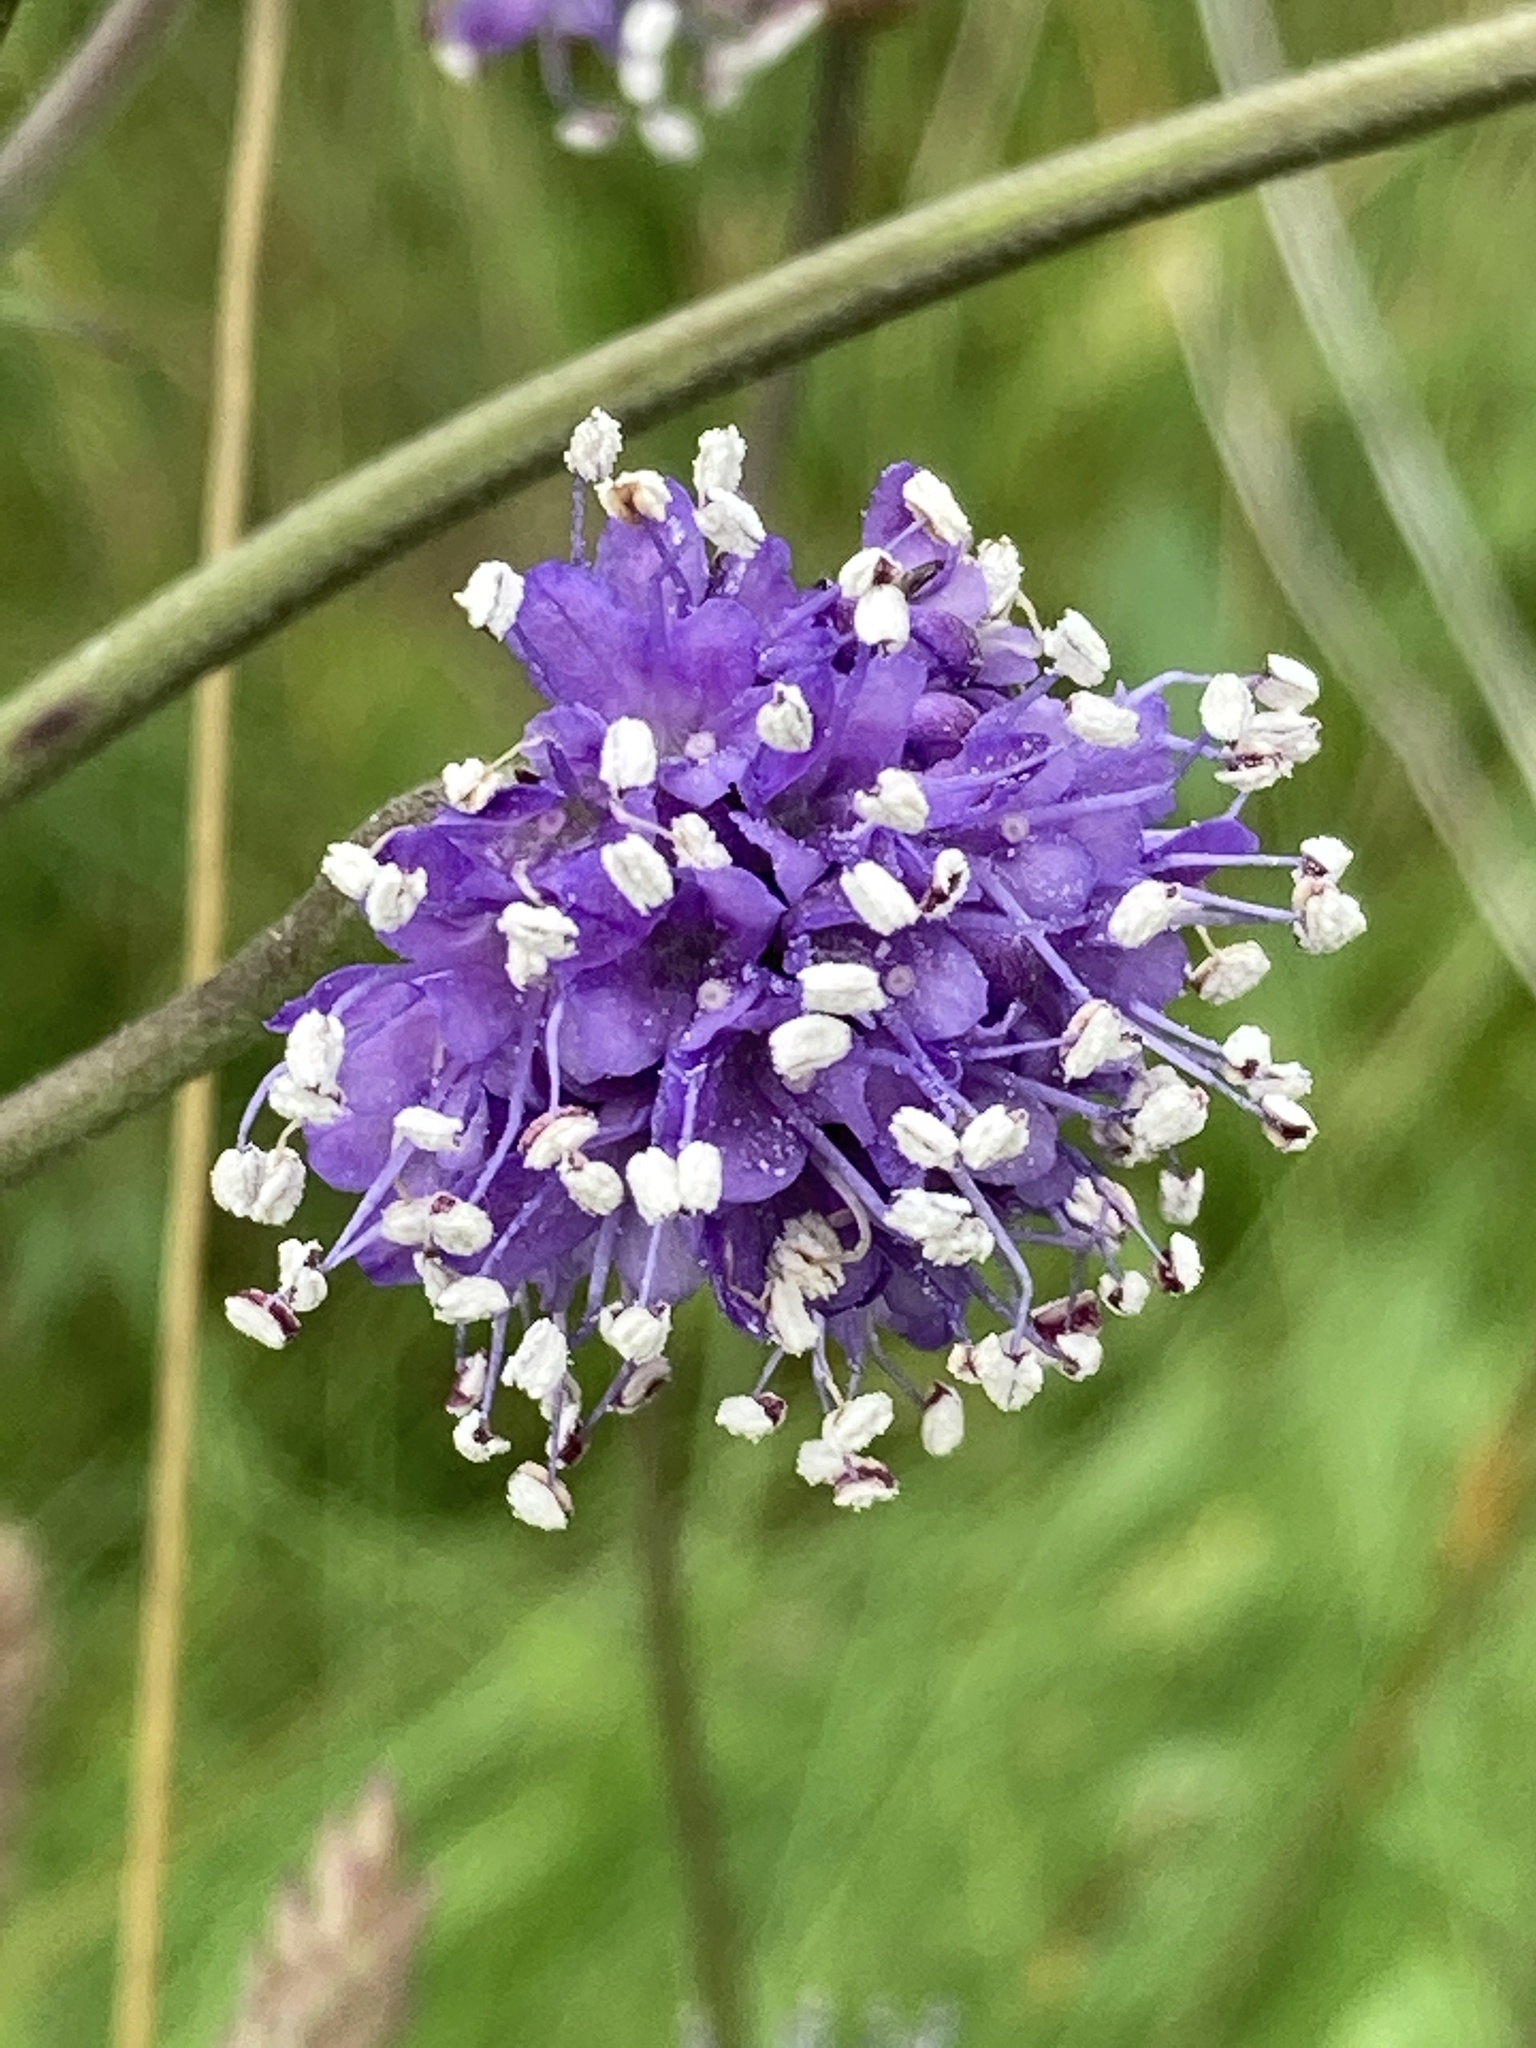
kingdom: Plantae
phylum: Tracheophyta
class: Magnoliopsida
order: Dipsacales
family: Caprifoliaceae
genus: Succisa
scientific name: Succisa pratensis
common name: Devil's-bit
